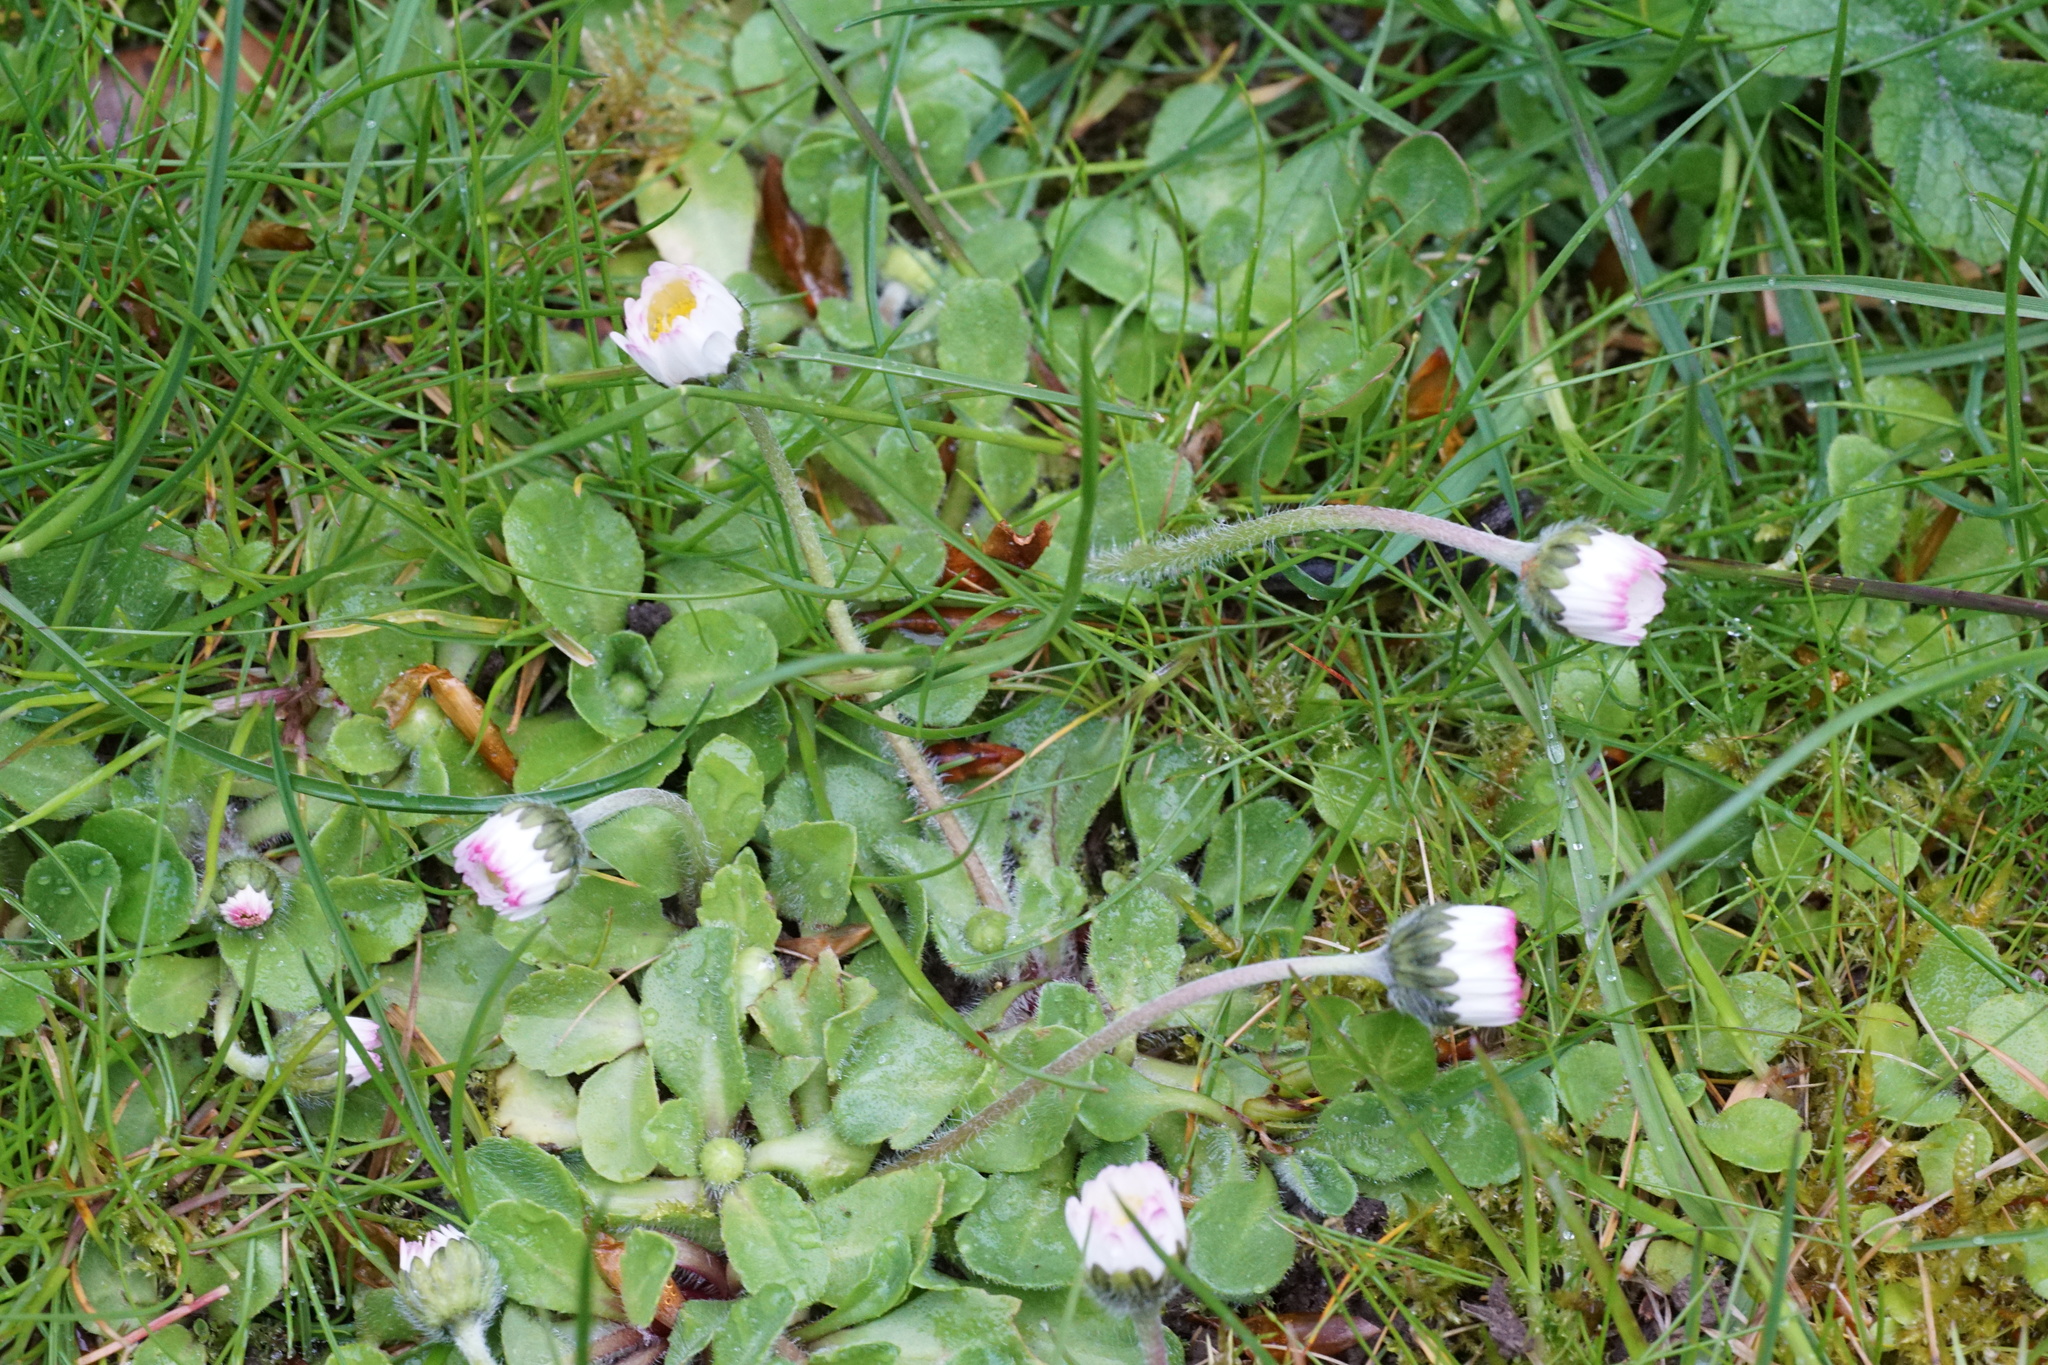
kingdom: Plantae
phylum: Tracheophyta
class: Magnoliopsida
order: Asterales
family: Asteraceae
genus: Bellis
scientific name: Bellis perennis
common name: Lawndaisy
